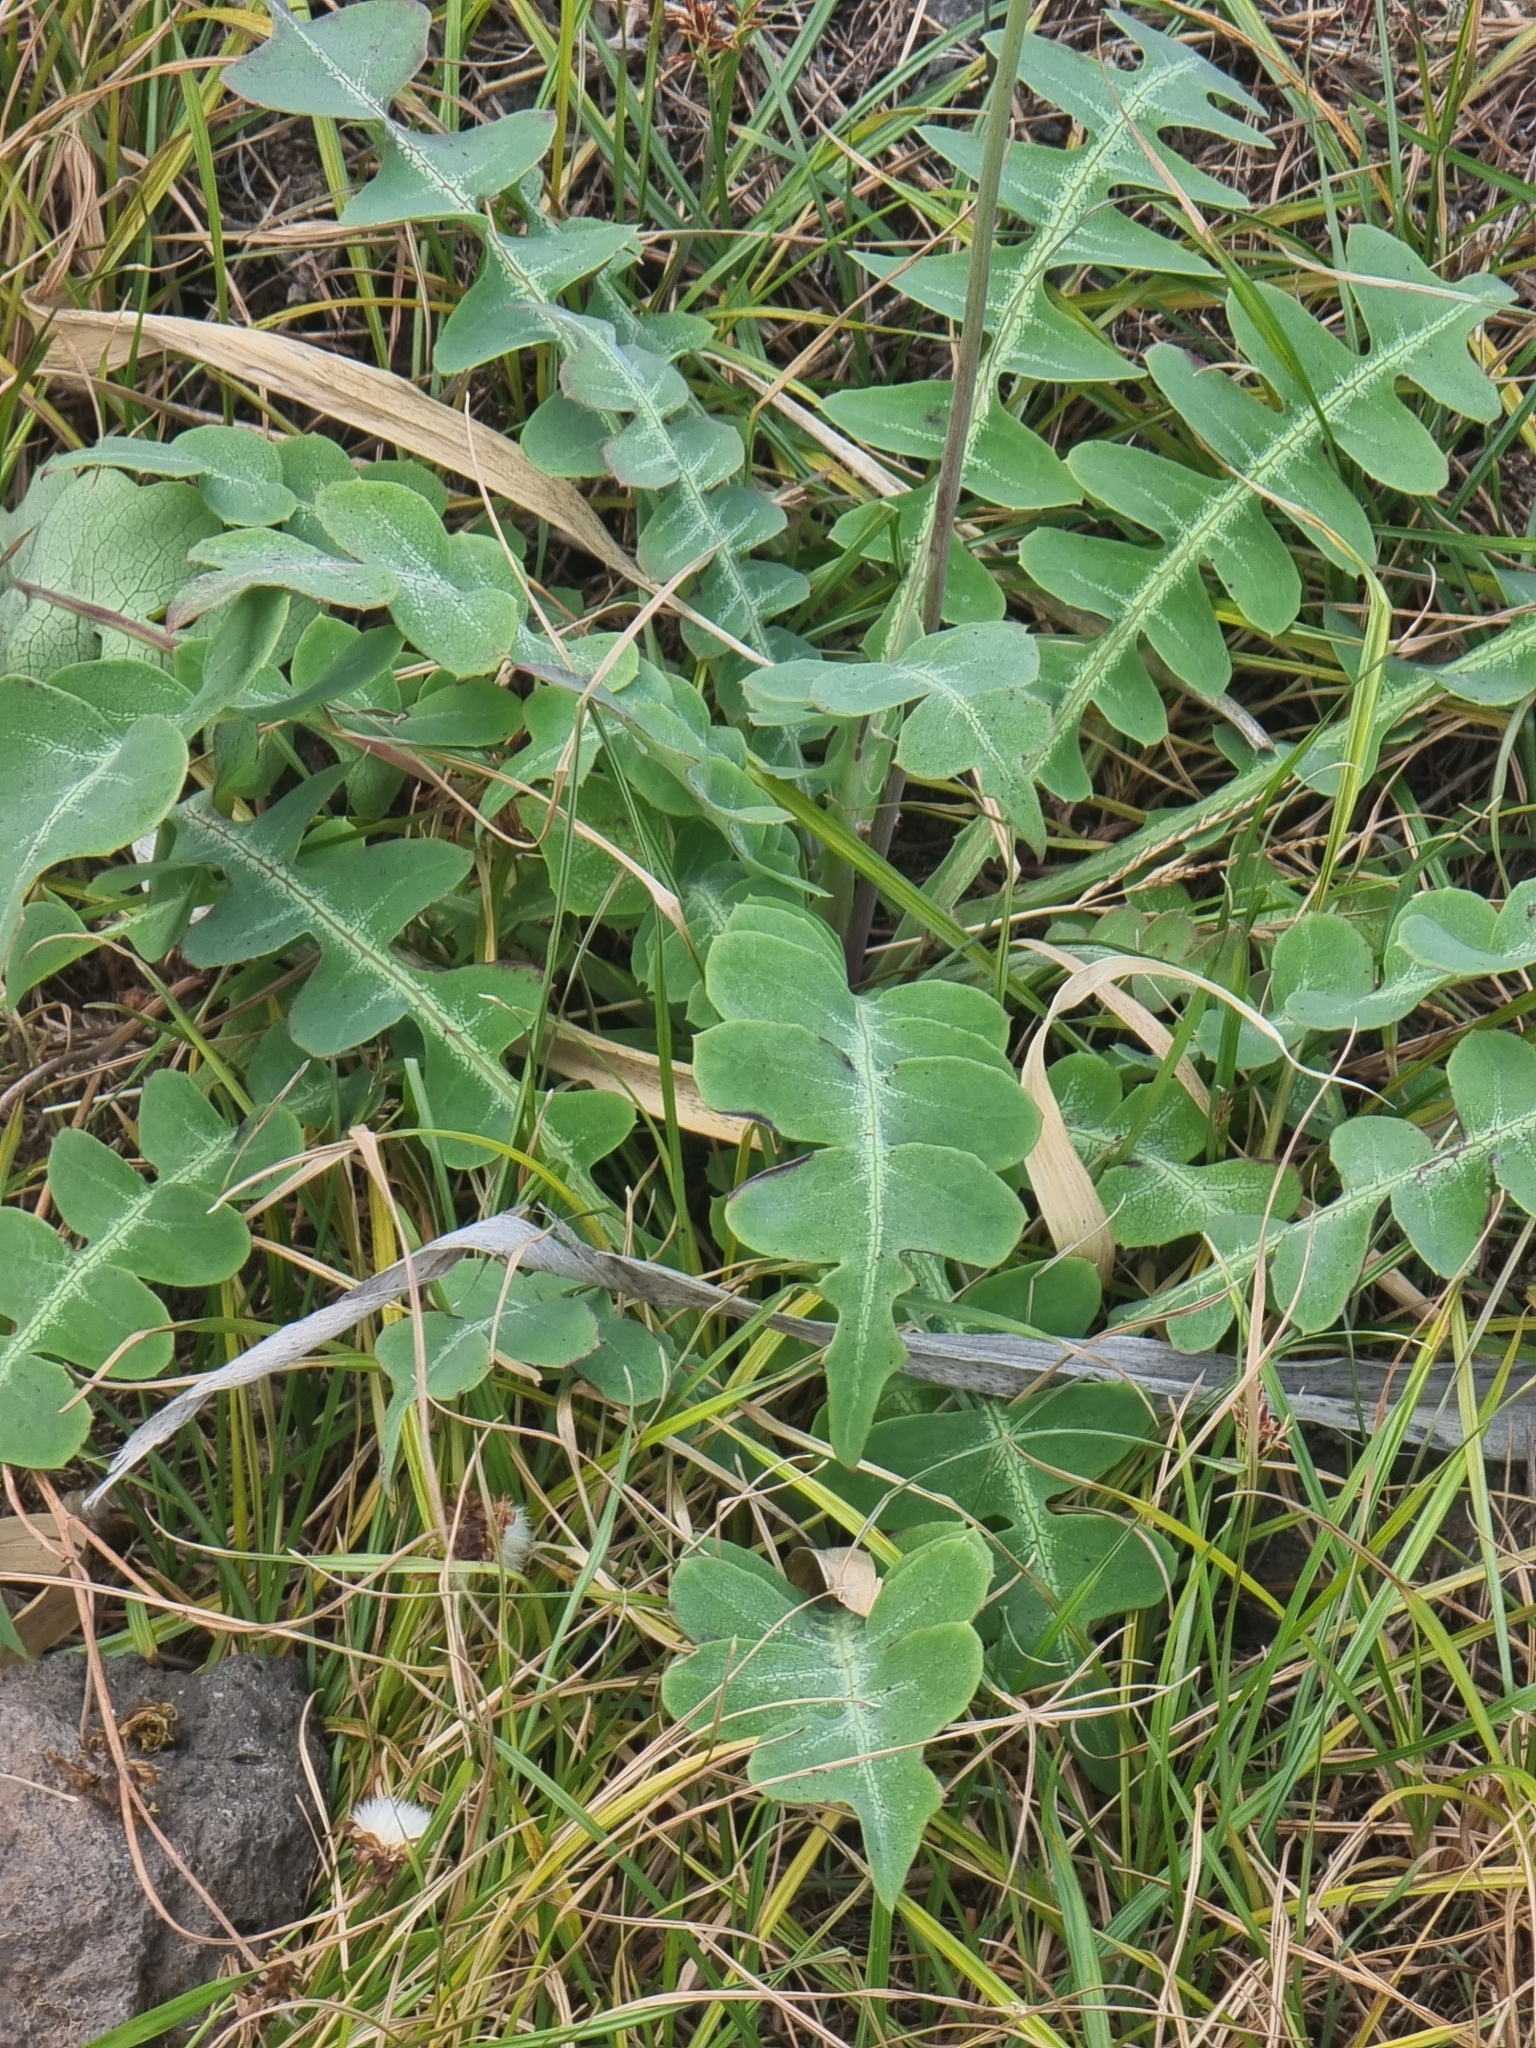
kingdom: Plantae
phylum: Tracheophyta
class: Magnoliopsida
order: Asterales
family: Asteraceae
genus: Sonchus
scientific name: Sonchus latifolius
